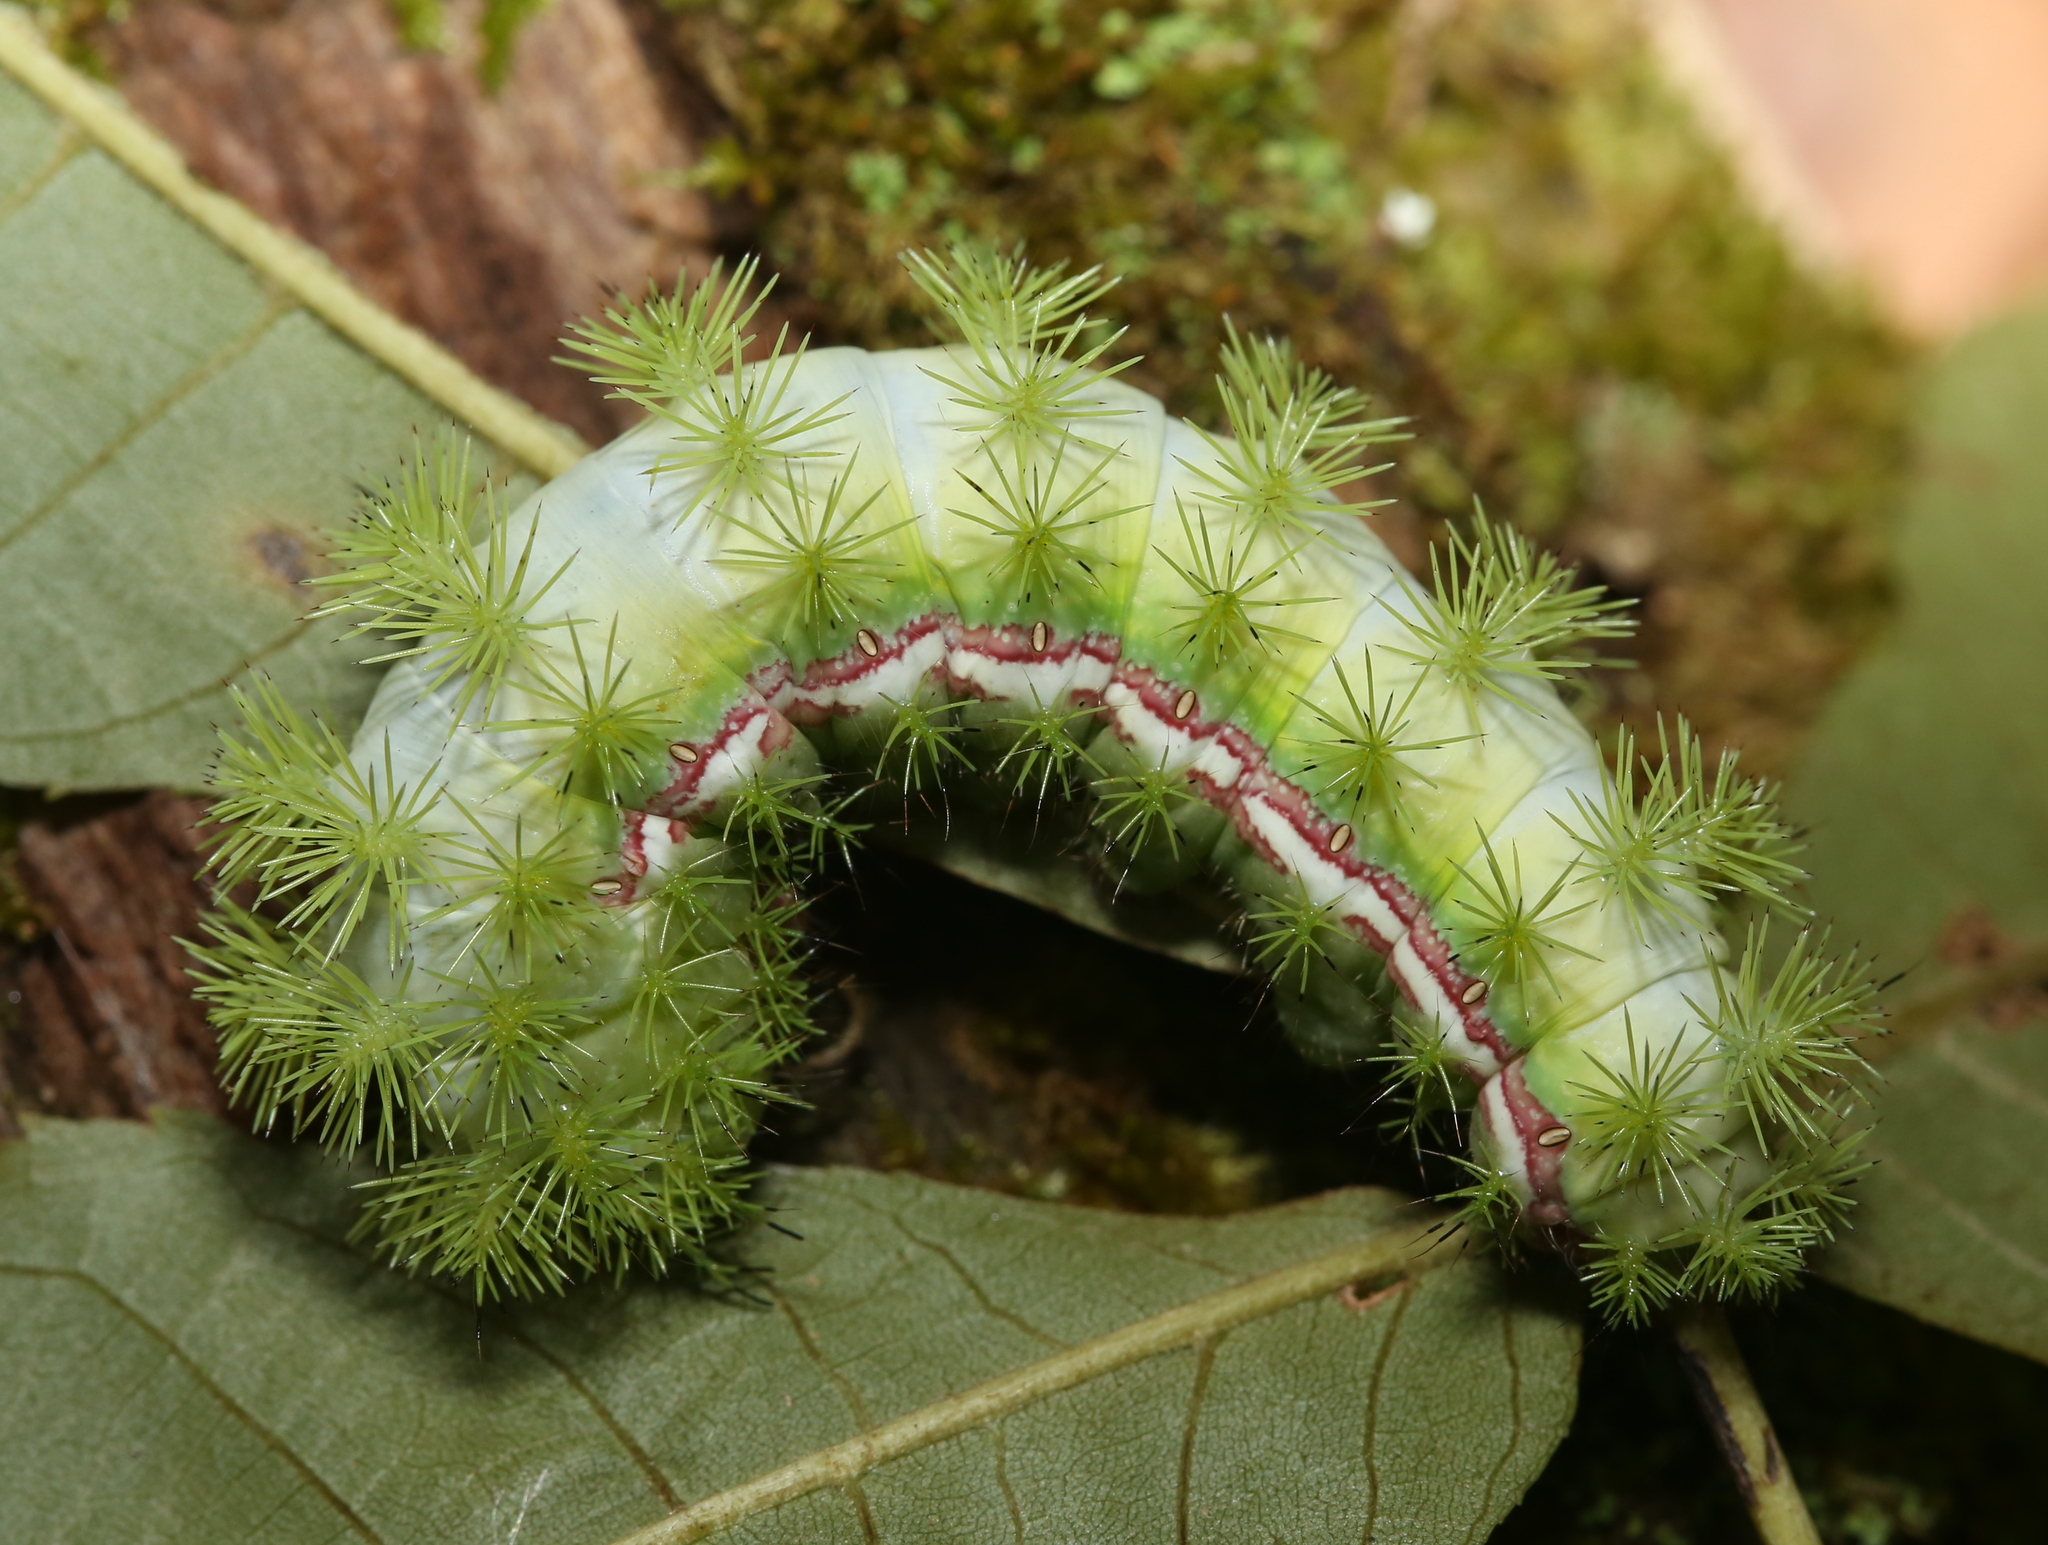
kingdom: Animalia
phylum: Arthropoda
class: Insecta
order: Lepidoptera
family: Saturniidae
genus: Automeris
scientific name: Automeris io
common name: Io moth
